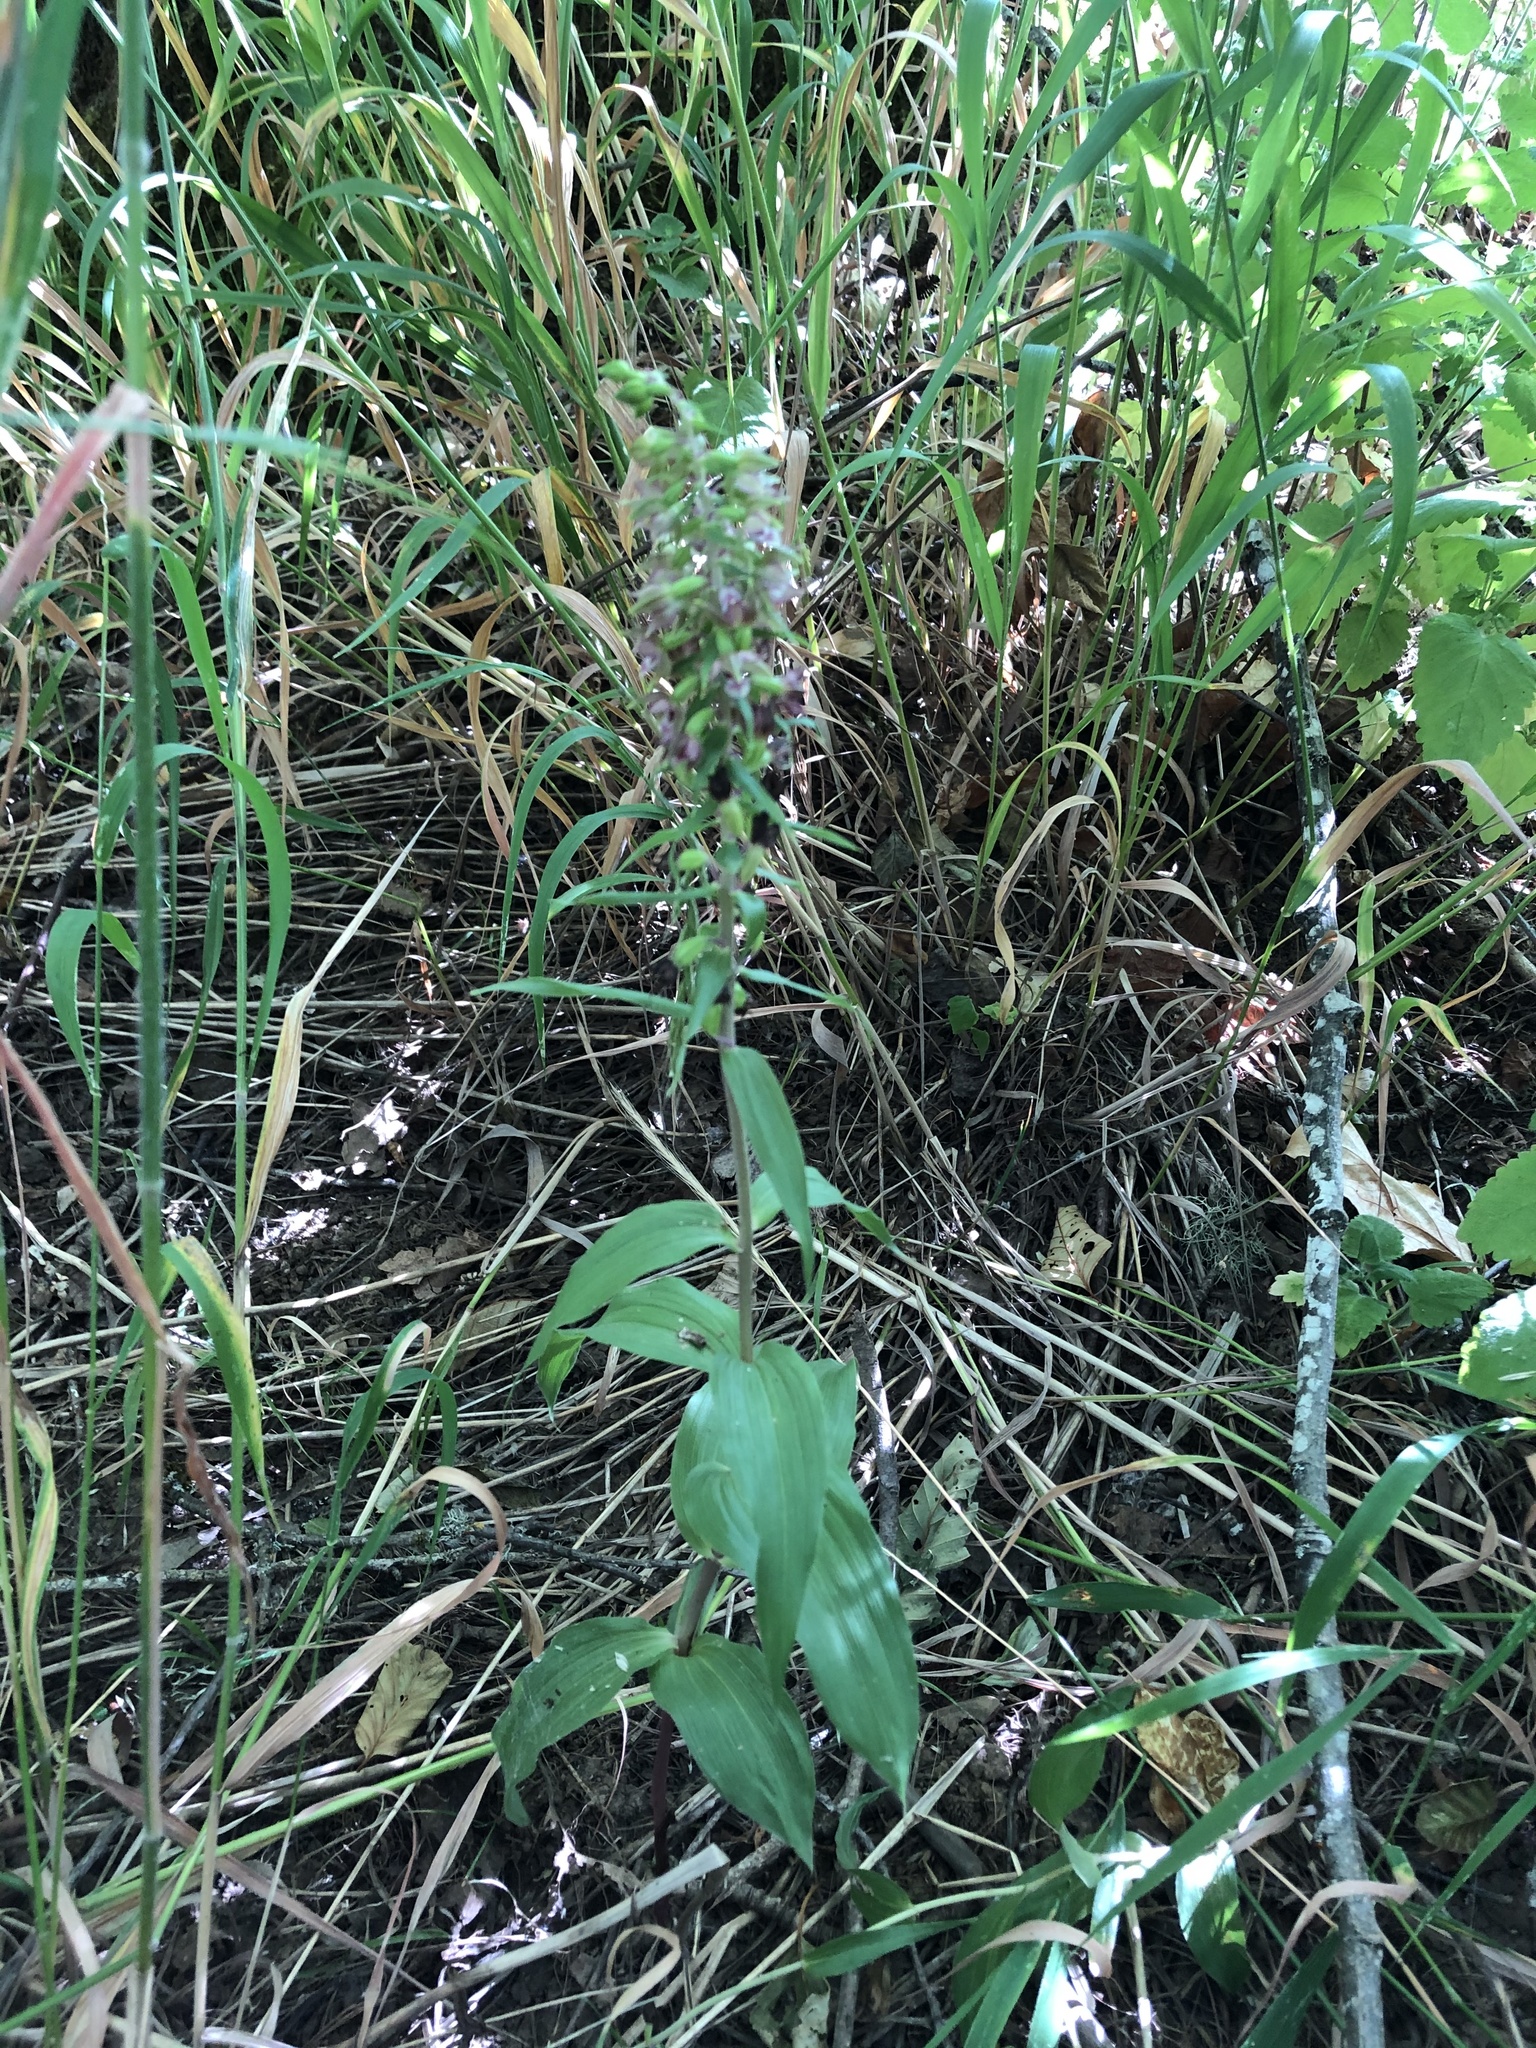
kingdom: Plantae
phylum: Tracheophyta
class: Liliopsida
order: Asparagales
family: Orchidaceae
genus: Epipactis
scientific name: Epipactis helleborine
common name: Broad-leaved helleborine
